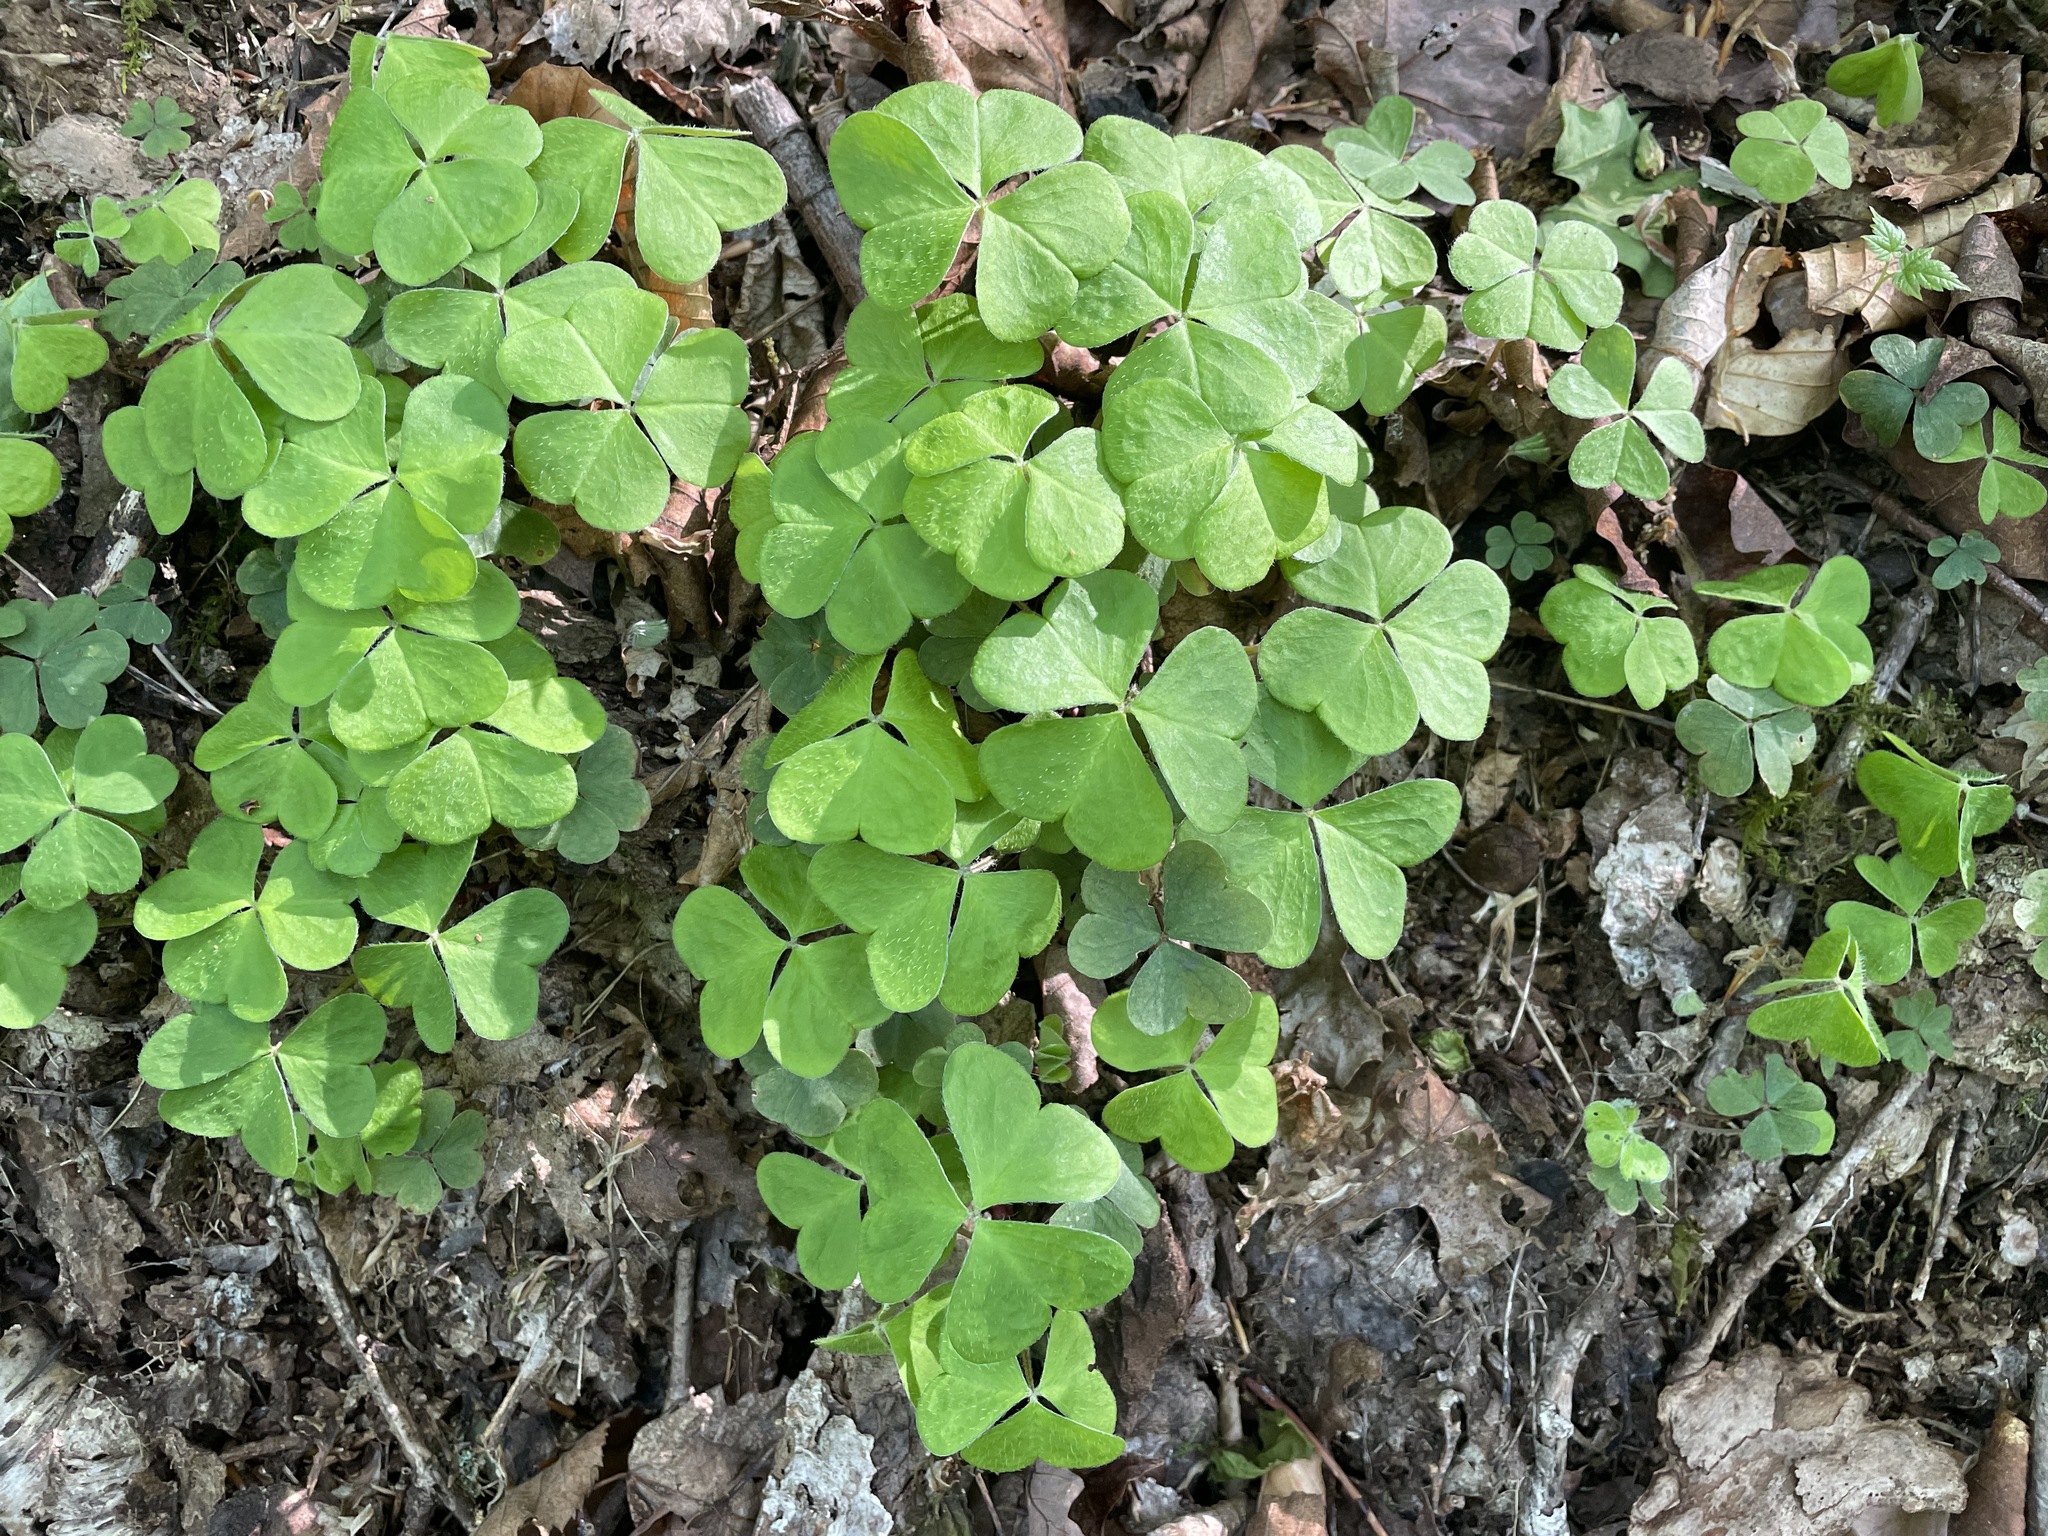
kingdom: Plantae
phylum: Tracheophyta
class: Magnoliopsida
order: Oxalidales
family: Oxalidaceae
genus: Oxalis
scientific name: Oxalis montana
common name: American wood-sorrel
